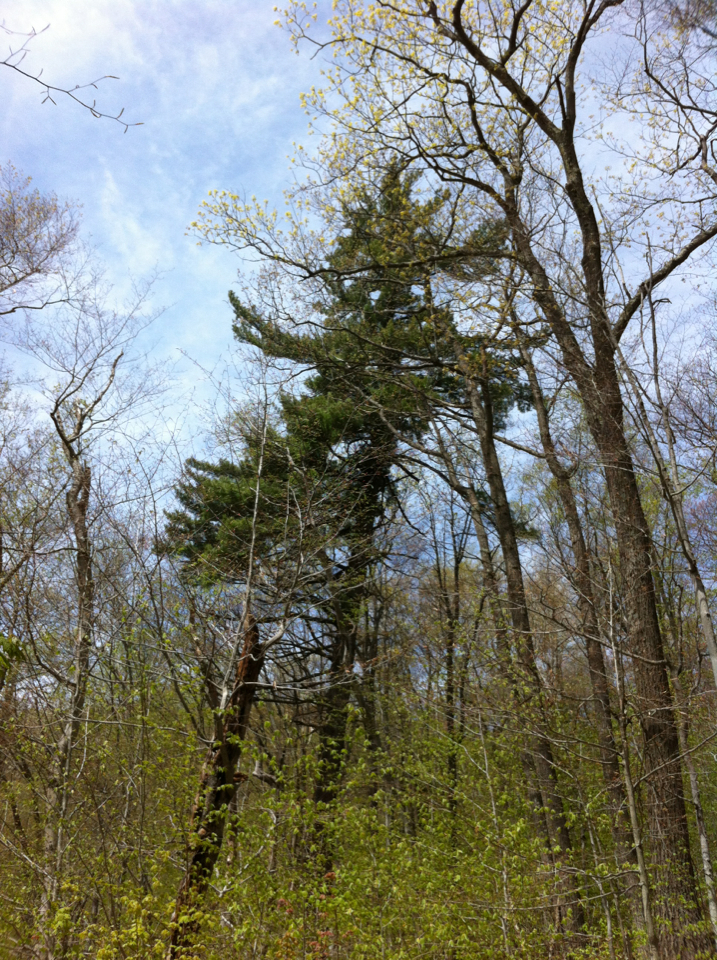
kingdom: Plantae
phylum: Tracheophyta
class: Pinopsida
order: Pinales
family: Pinaceae
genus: Pinus
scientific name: Pinus strobus
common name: Weymouth pine
